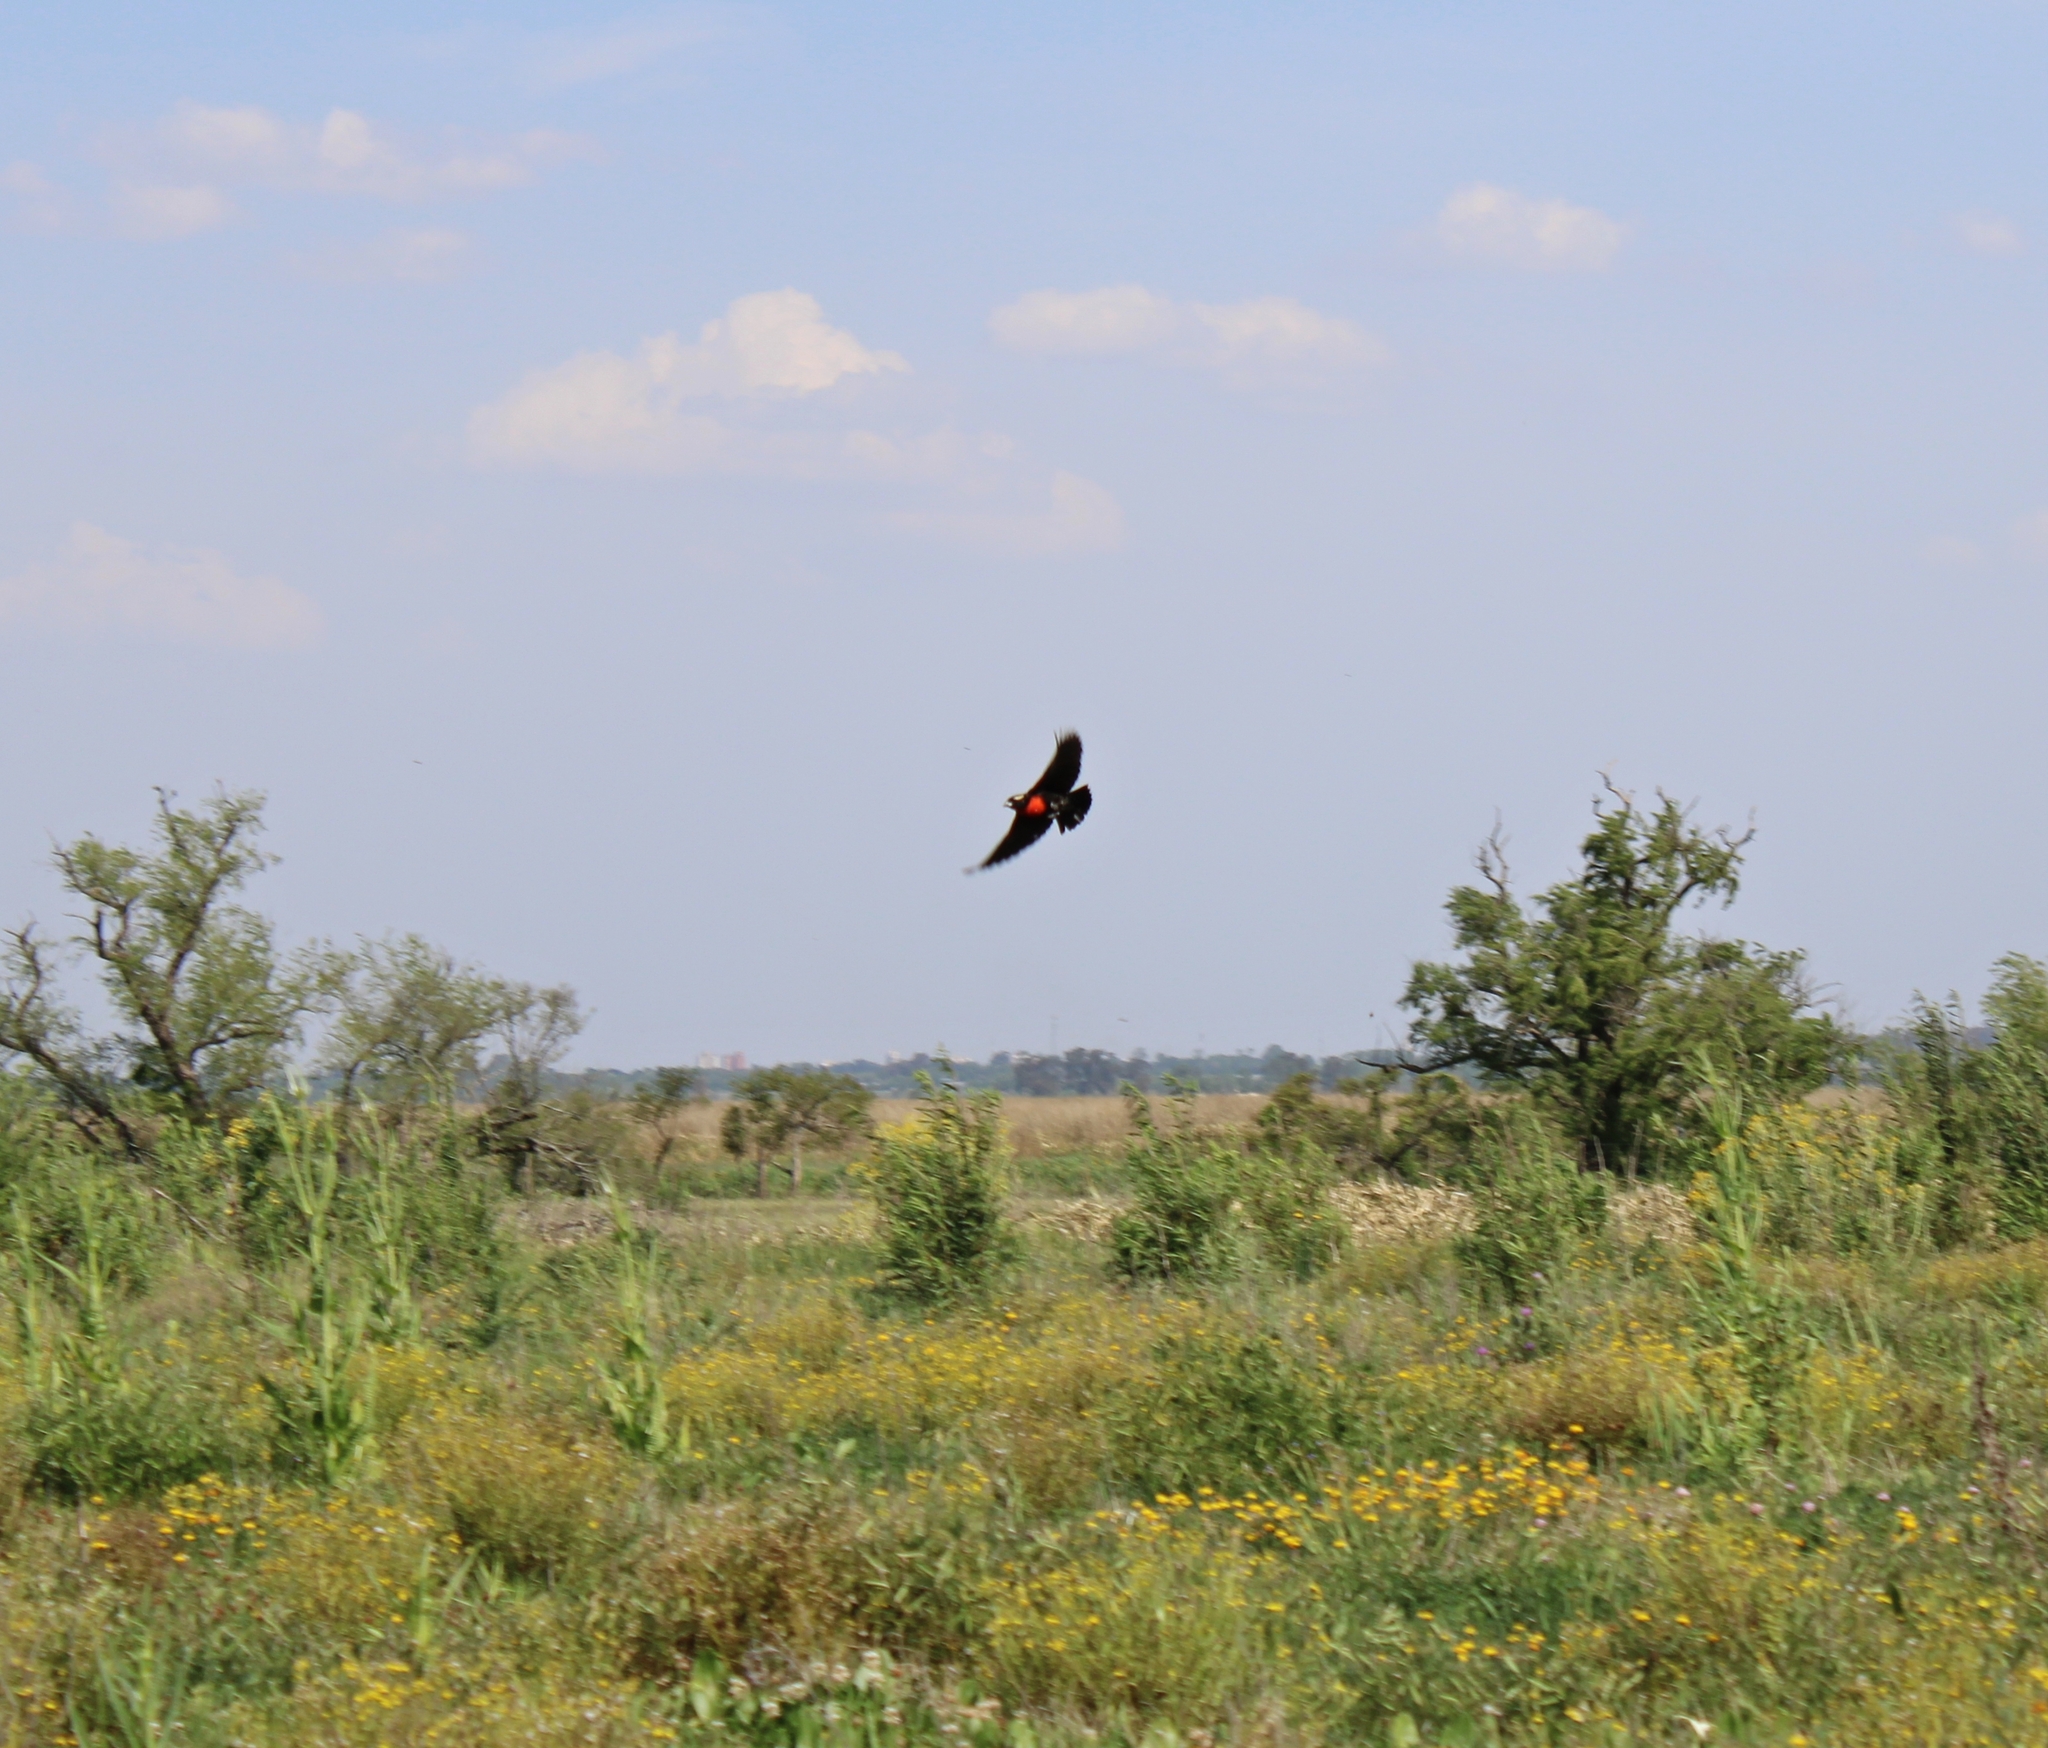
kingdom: Animalia
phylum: Chordata
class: Aves
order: Passeriformes
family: Icteridae
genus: Sturnella
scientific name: Sturnella superciliaris
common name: White-browed blackbird
